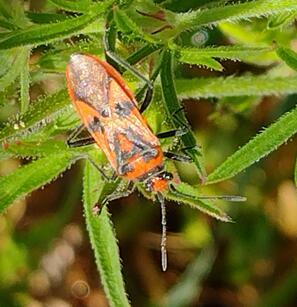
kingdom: Animalia
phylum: Arthropoda
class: Insecta
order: Hemiptera
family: Rhopalidae
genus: Corizus
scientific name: Corizus hyoscyami
